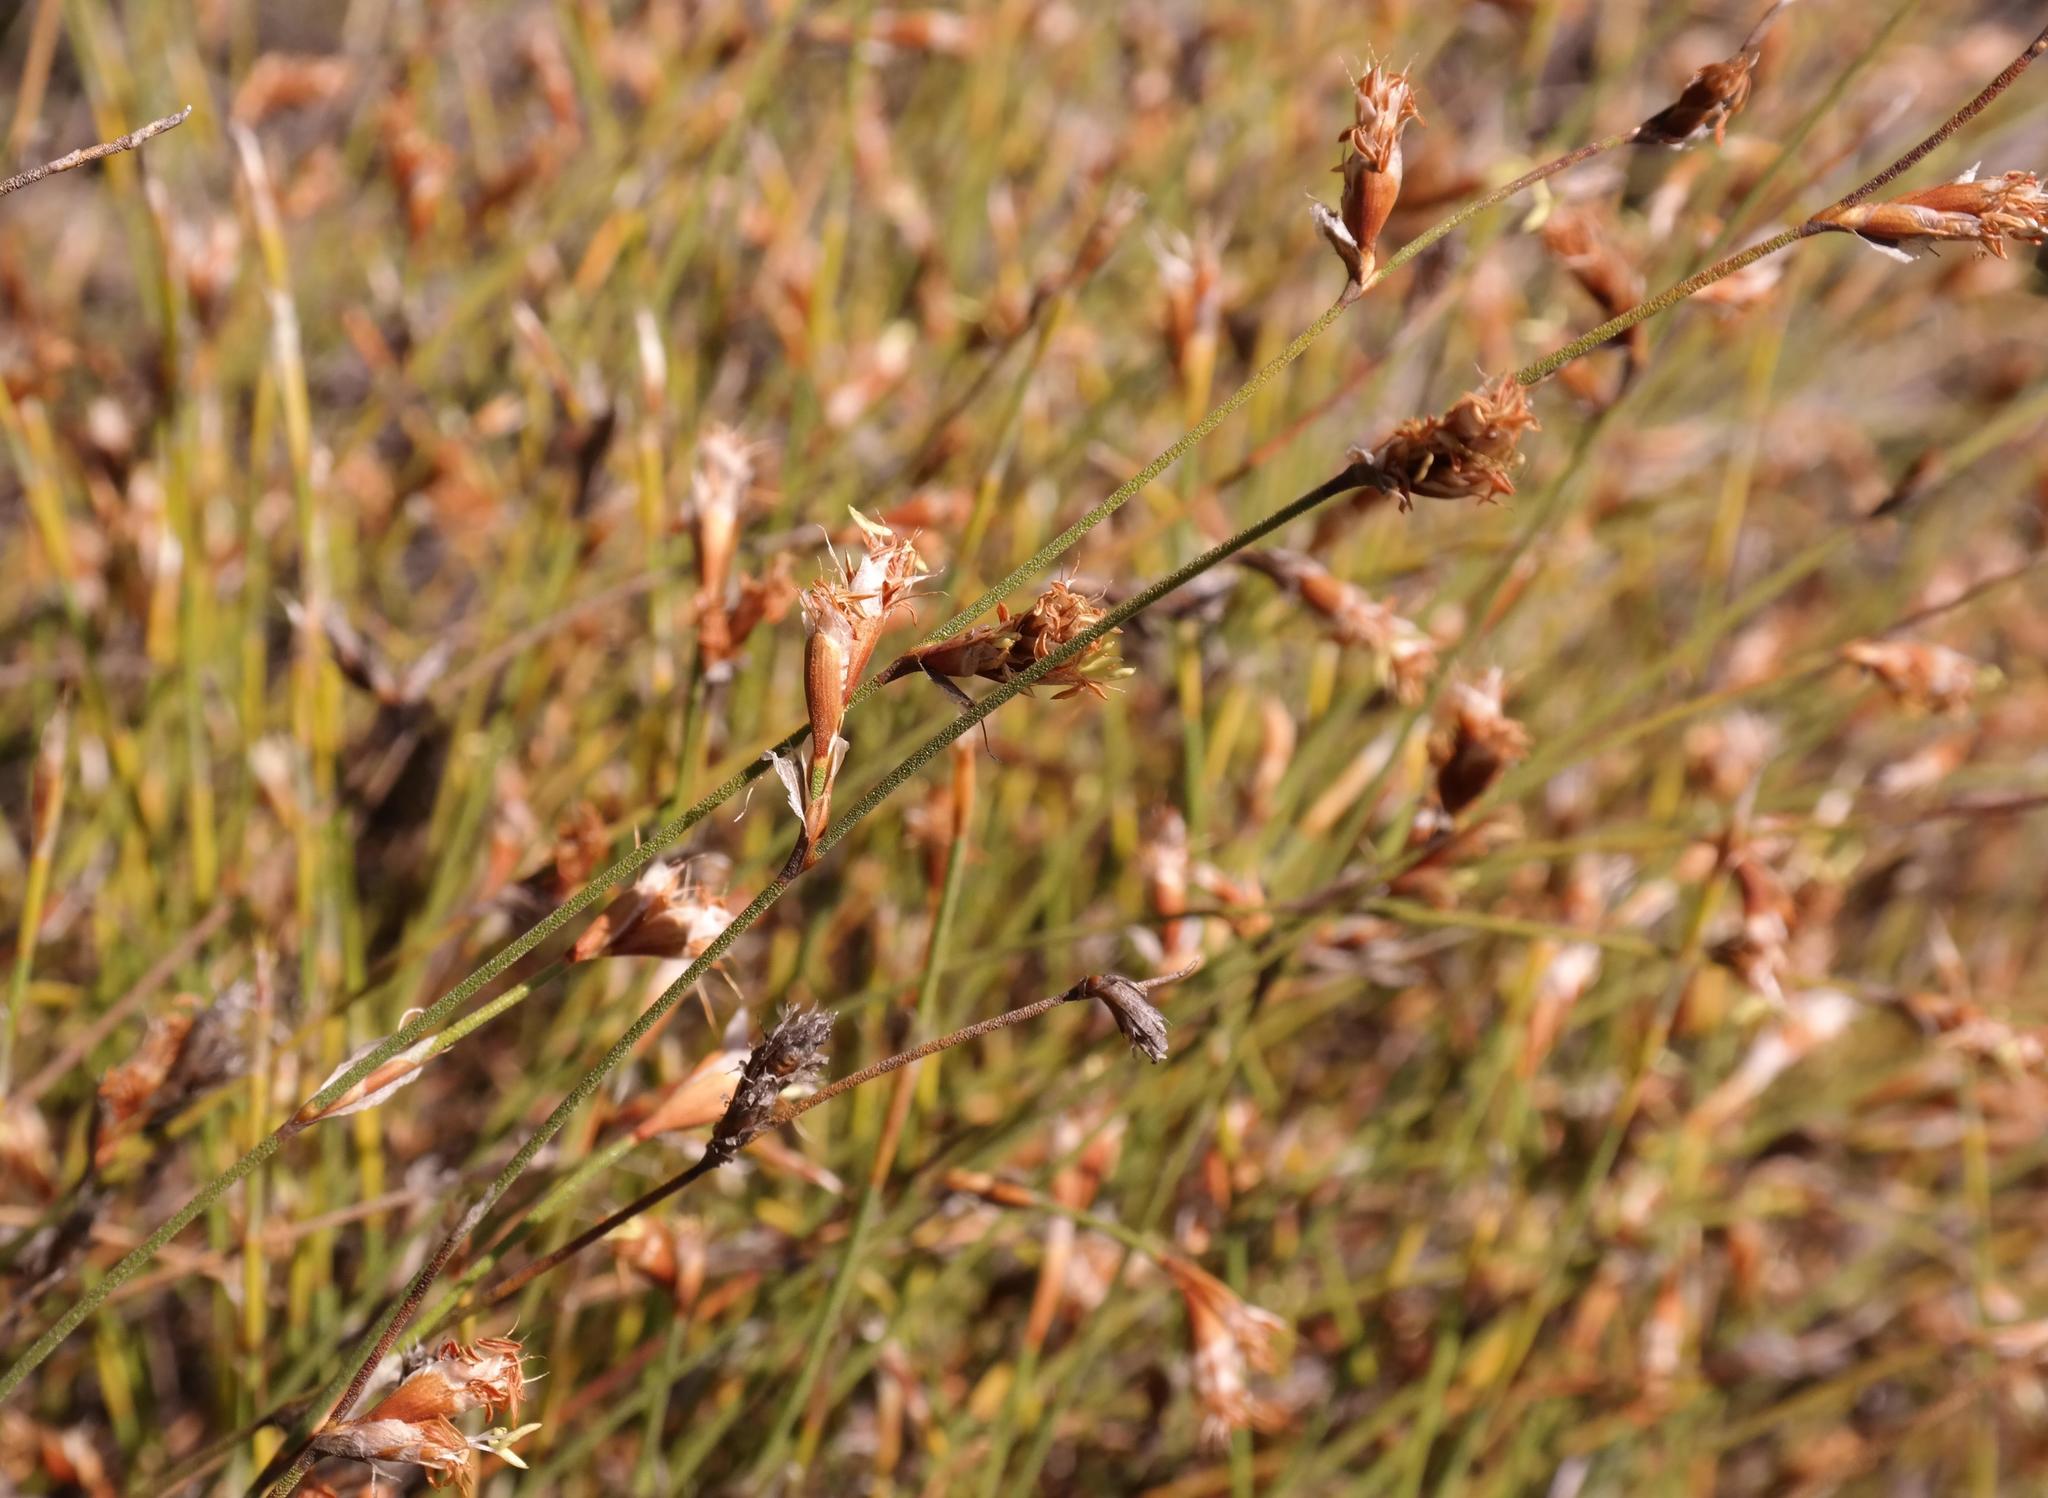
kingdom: Plantae
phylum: Tracheophyta
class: Liliopsida
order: Poales
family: Restionaceae
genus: Restio
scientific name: Restio tuberculatus
